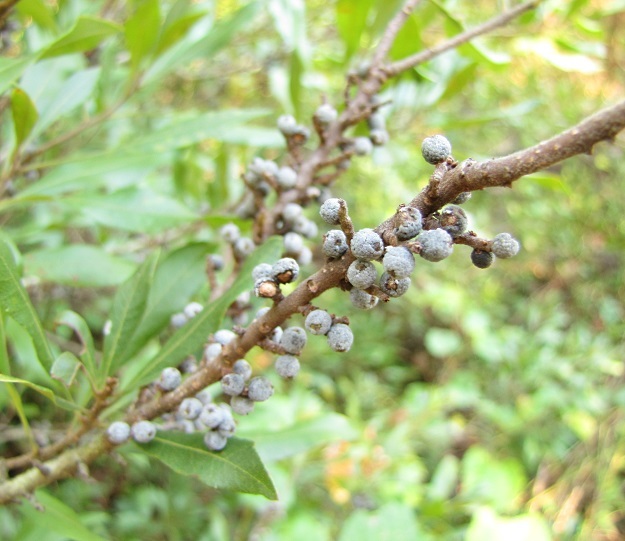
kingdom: Plantae
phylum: Tracheophyta
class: Magnoliopsida
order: Fagales
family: Myricaceae
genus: Morella
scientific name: Morella cerifera
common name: Wax myrtle
